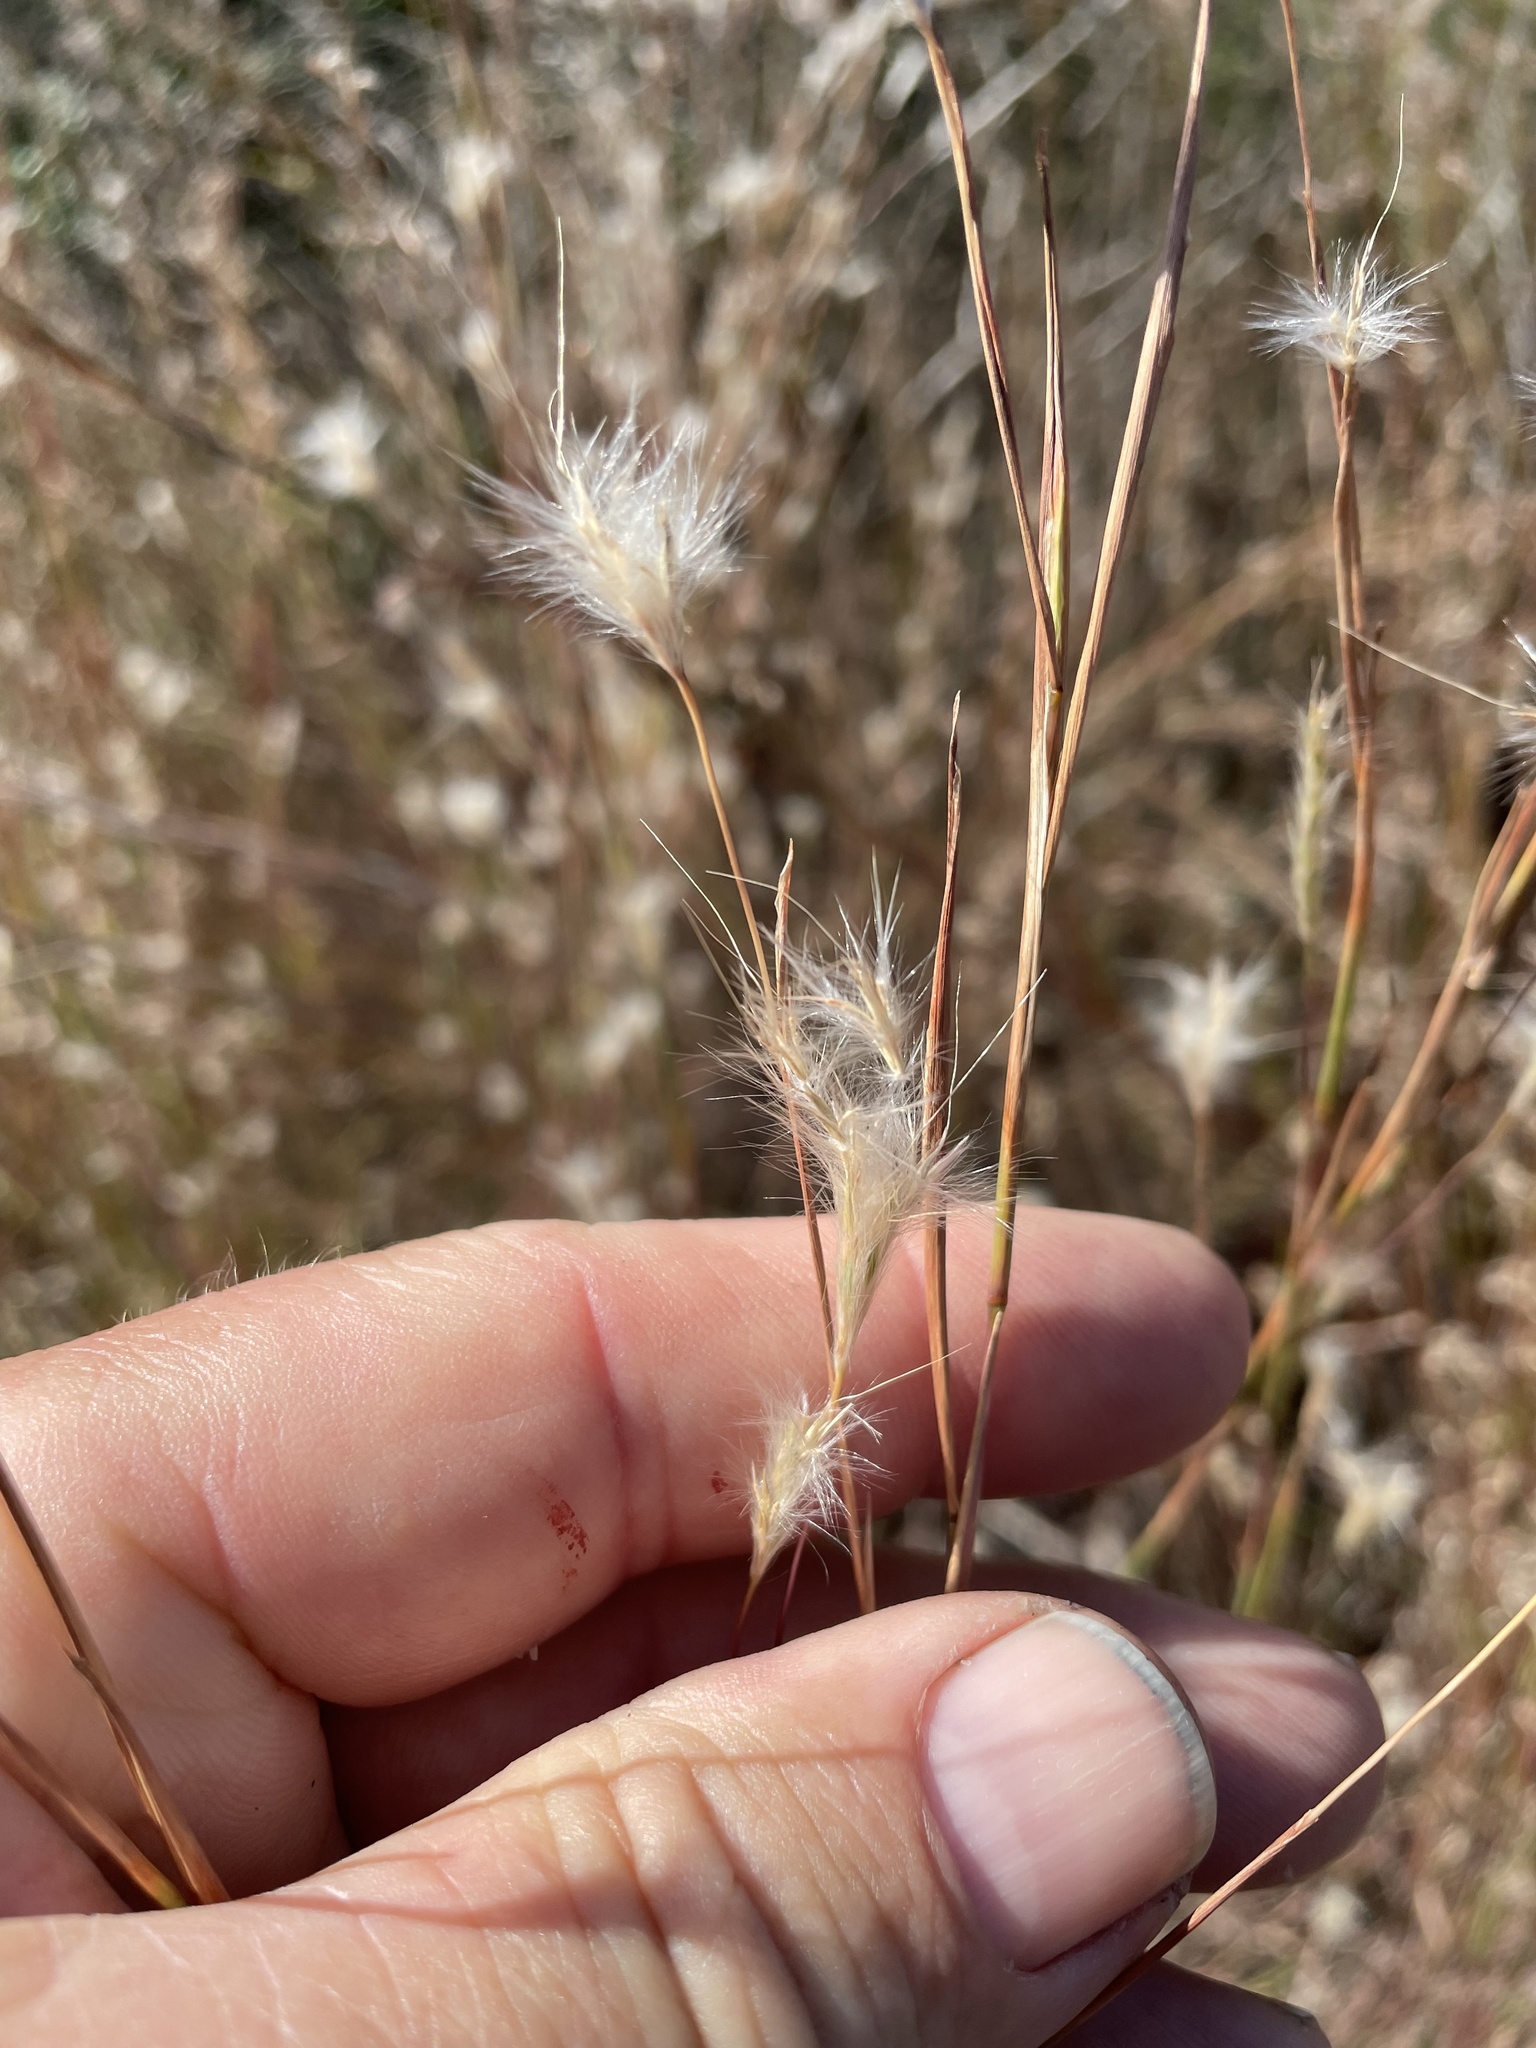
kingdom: Plantae
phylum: Tracheophyta
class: Liliopsida
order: Poales
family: Poaceae
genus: Andropogon
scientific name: Andropogon ternarius
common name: Split bluestem
